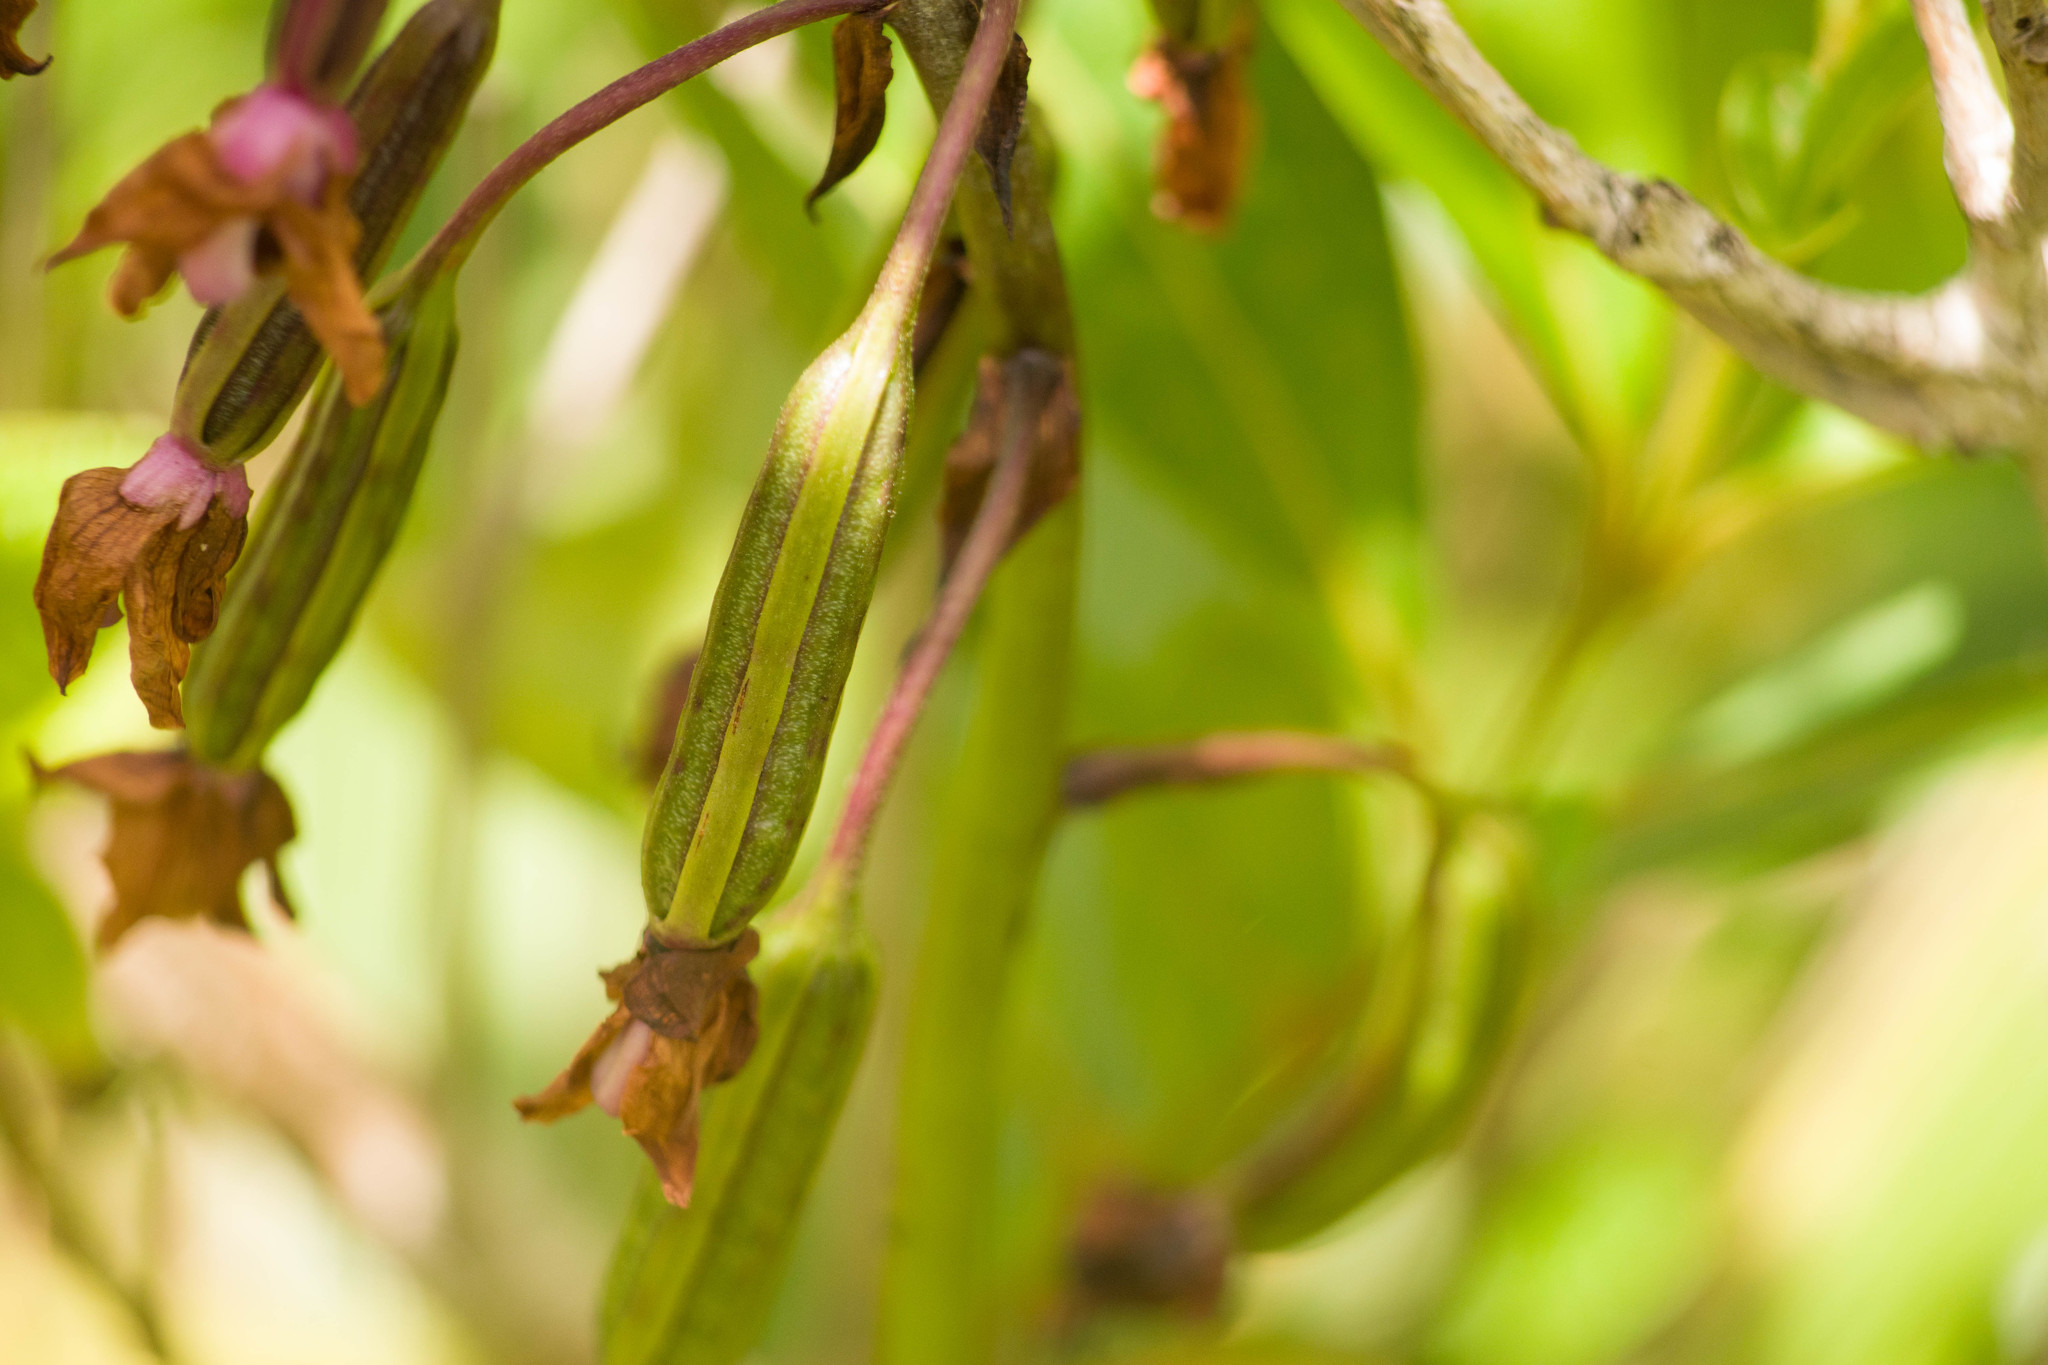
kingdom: Plantae
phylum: Tracheophyta
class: Liliopsida
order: Asparagales
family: Orchidaceae
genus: Spathoglottis
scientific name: Spathoglottis plicata
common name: Philippine ground orchid
